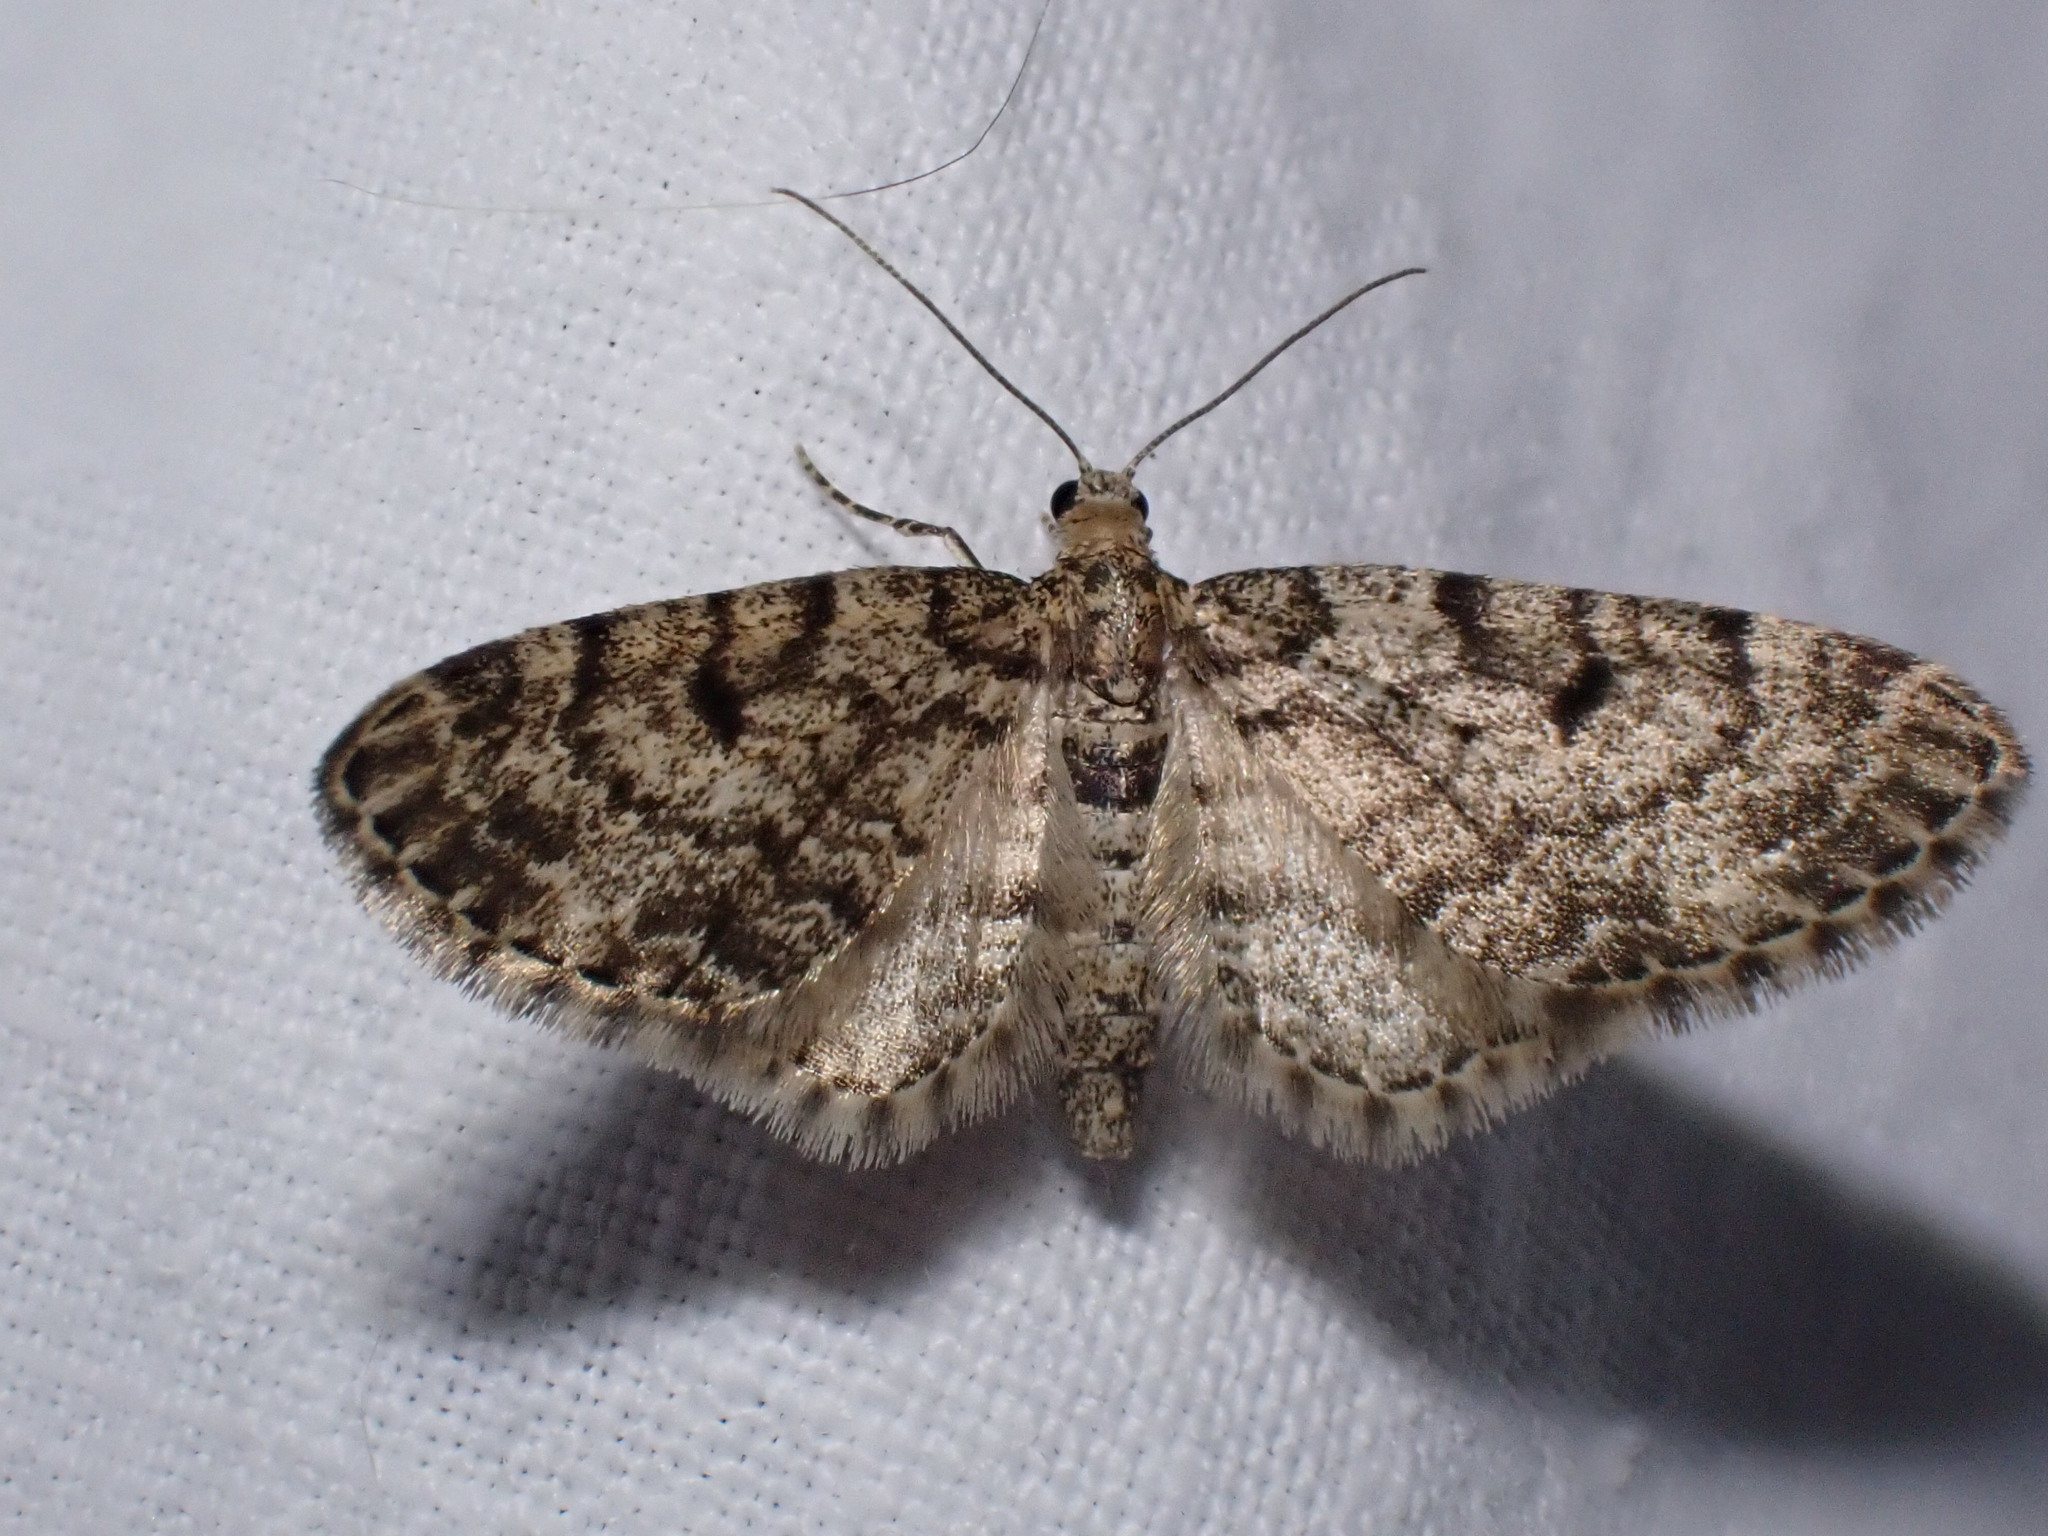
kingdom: Animalia
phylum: Arthropoda
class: Insecta
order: Lepidoptera
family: Geometridae
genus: Eupithecia
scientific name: Eupithecia tantillaria
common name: Dwarf pug
